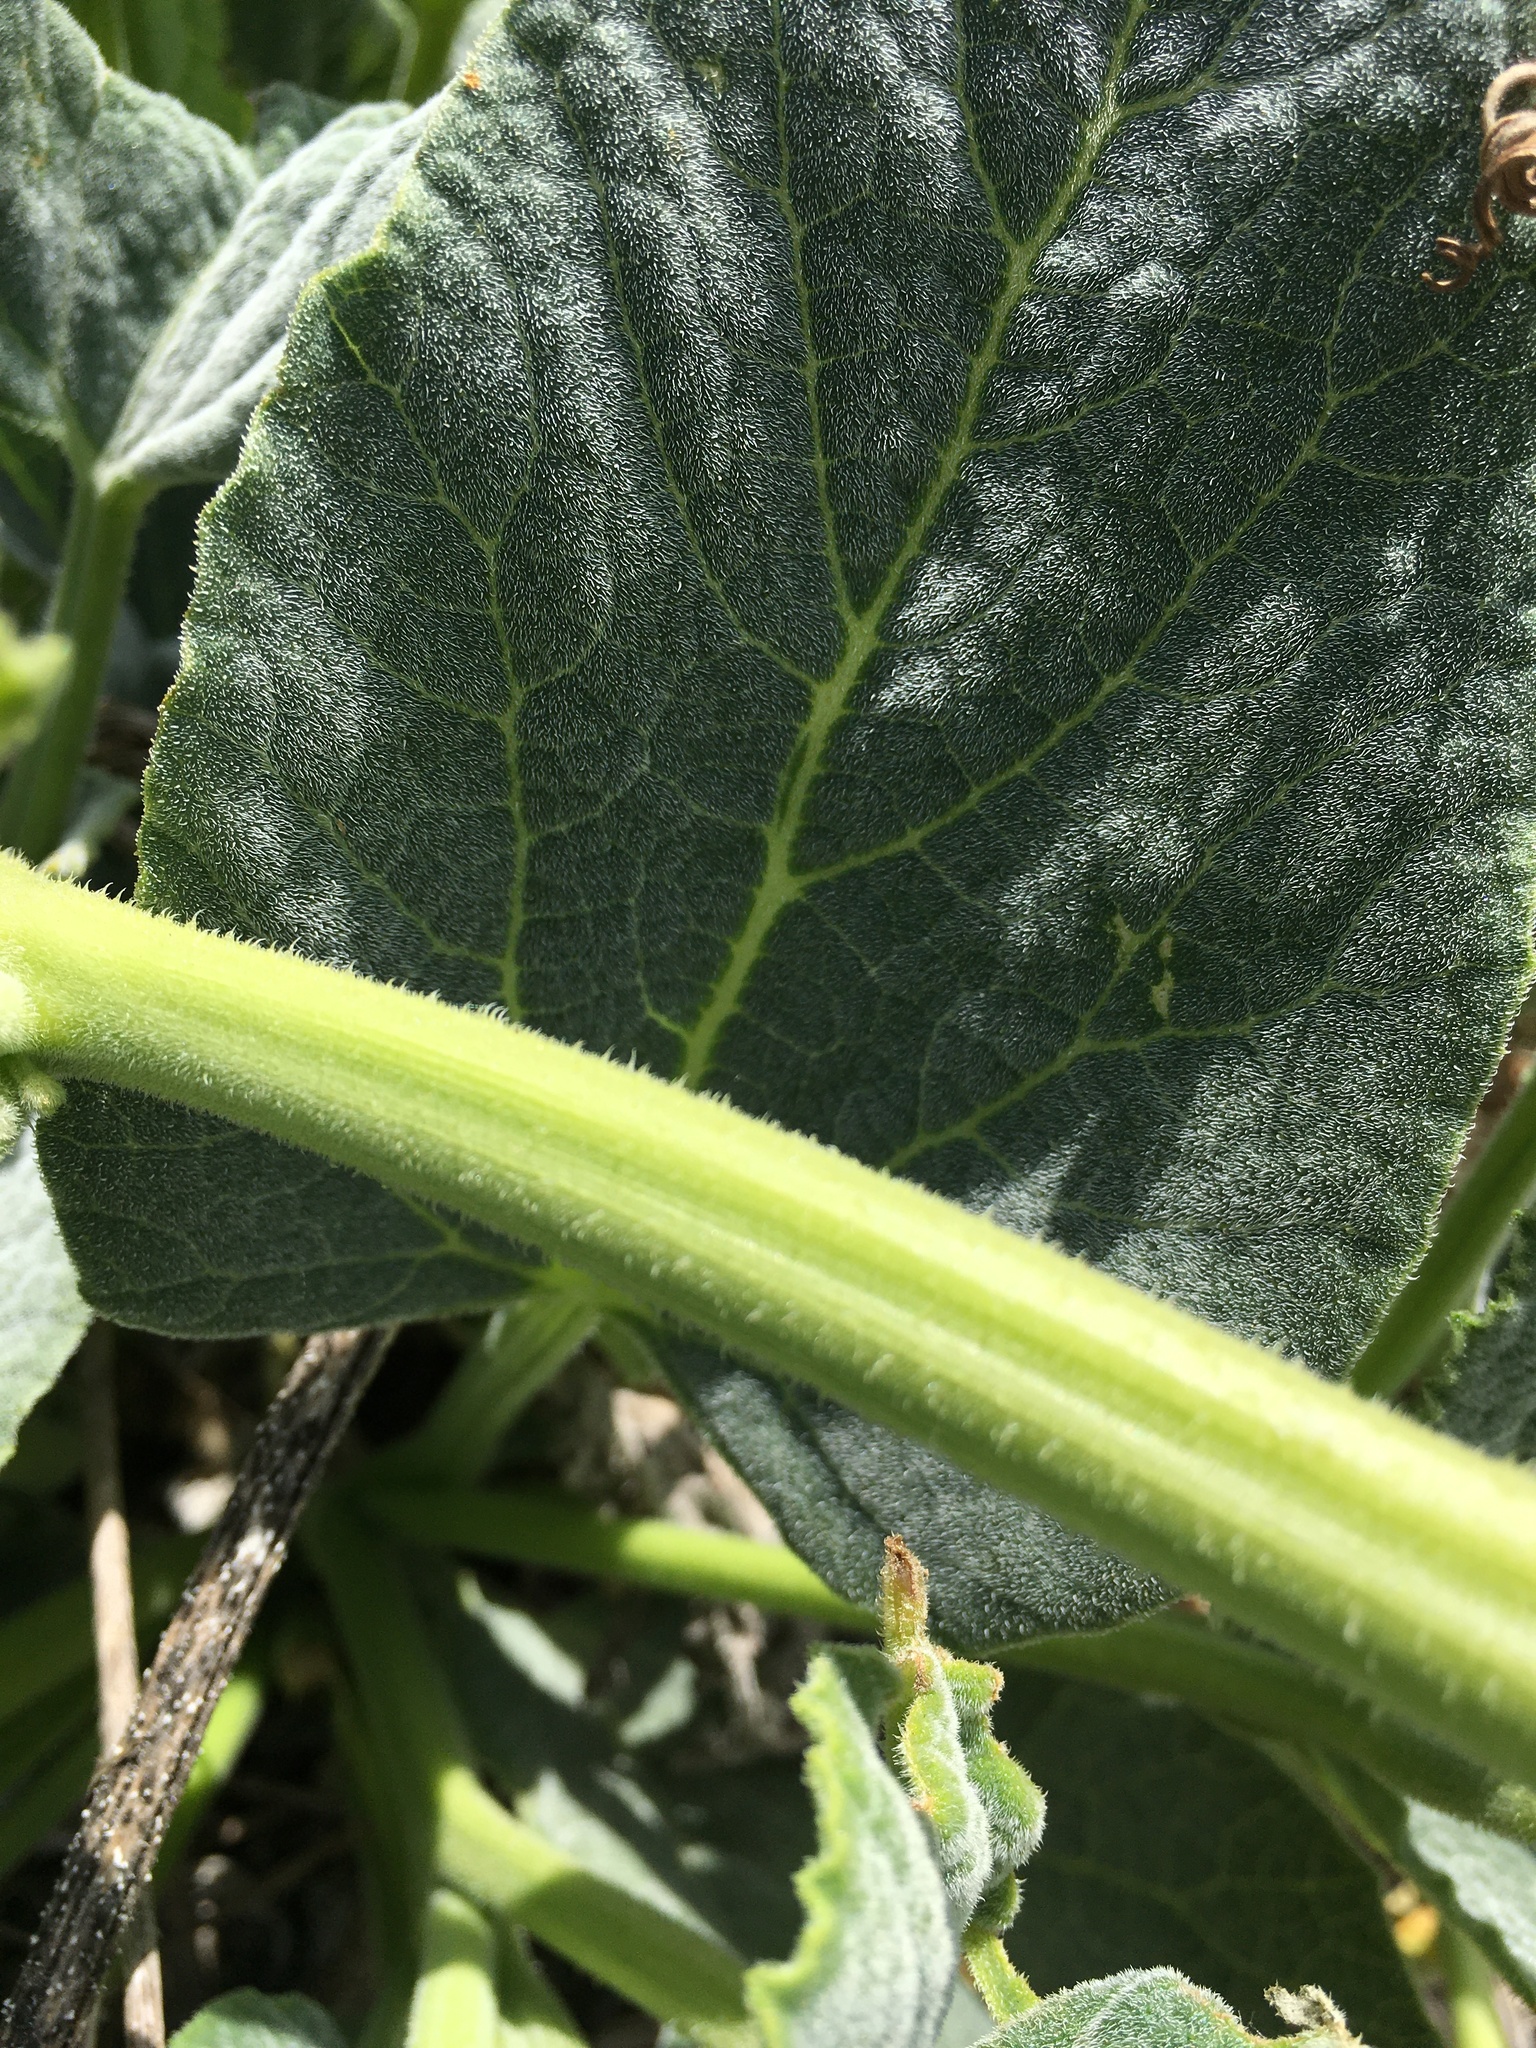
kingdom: Plantae
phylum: Tracheophyta
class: Magnoliopsida
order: Cucurbitales
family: Cucurbitaceae
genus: Cucurbita
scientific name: Cucurbita foetidissima
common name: Buffalo gourd
